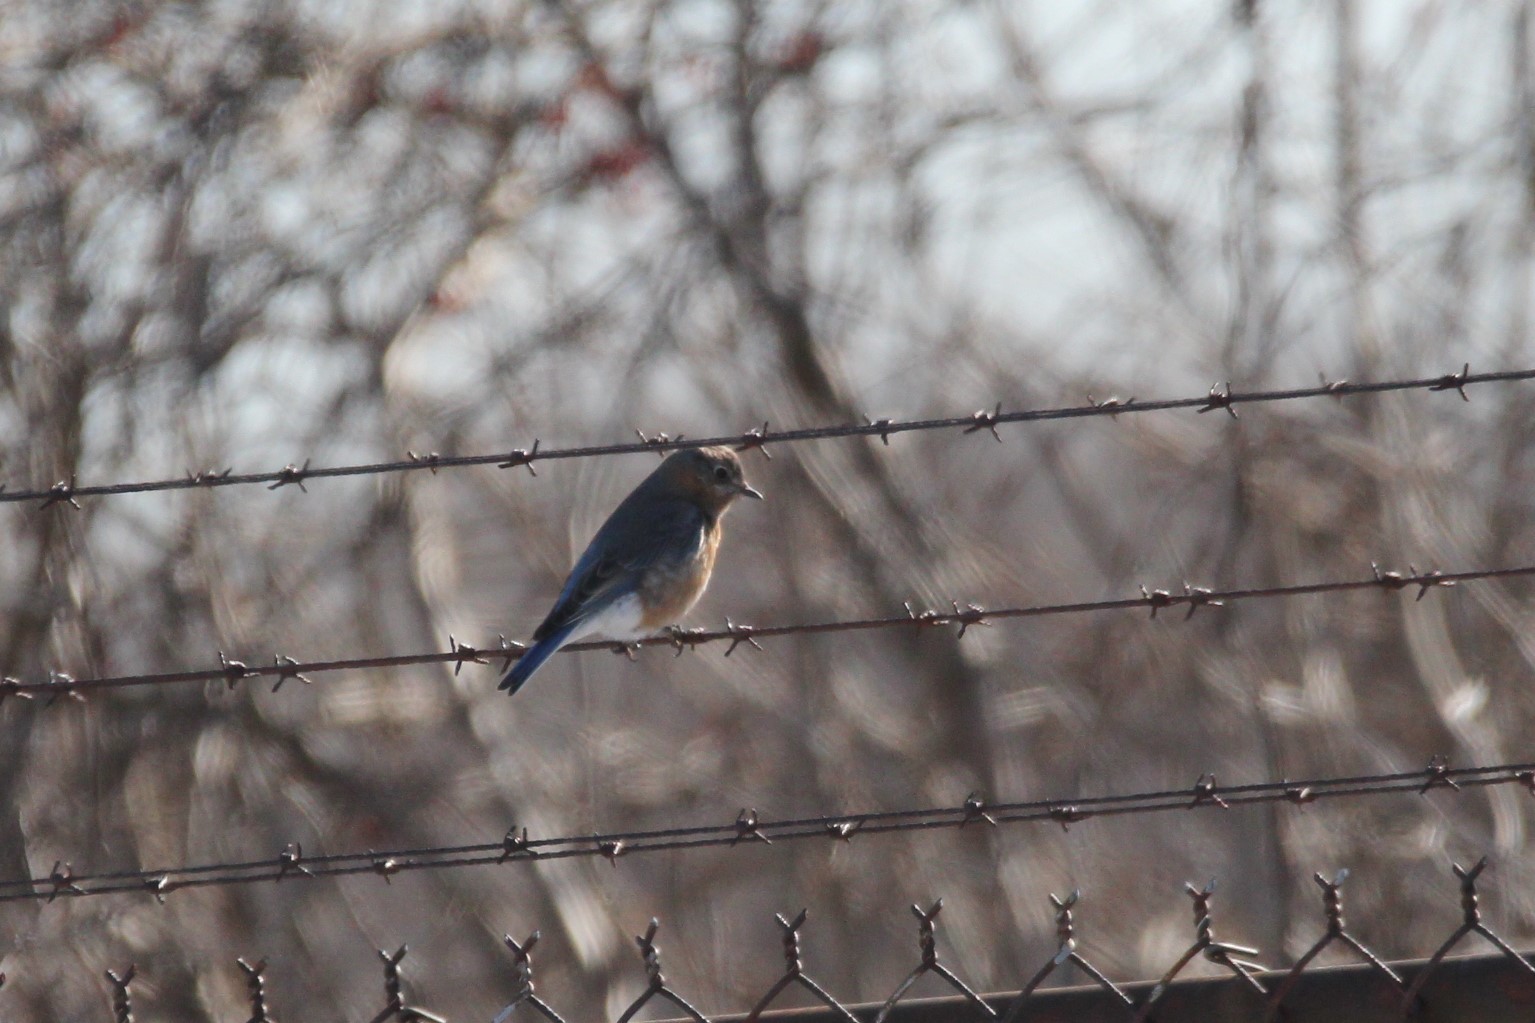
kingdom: Animalia
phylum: Chordata
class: Aves
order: Passeriformes
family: Turdidae
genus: Sialia
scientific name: Sialia sialis
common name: Eastern bluebird
